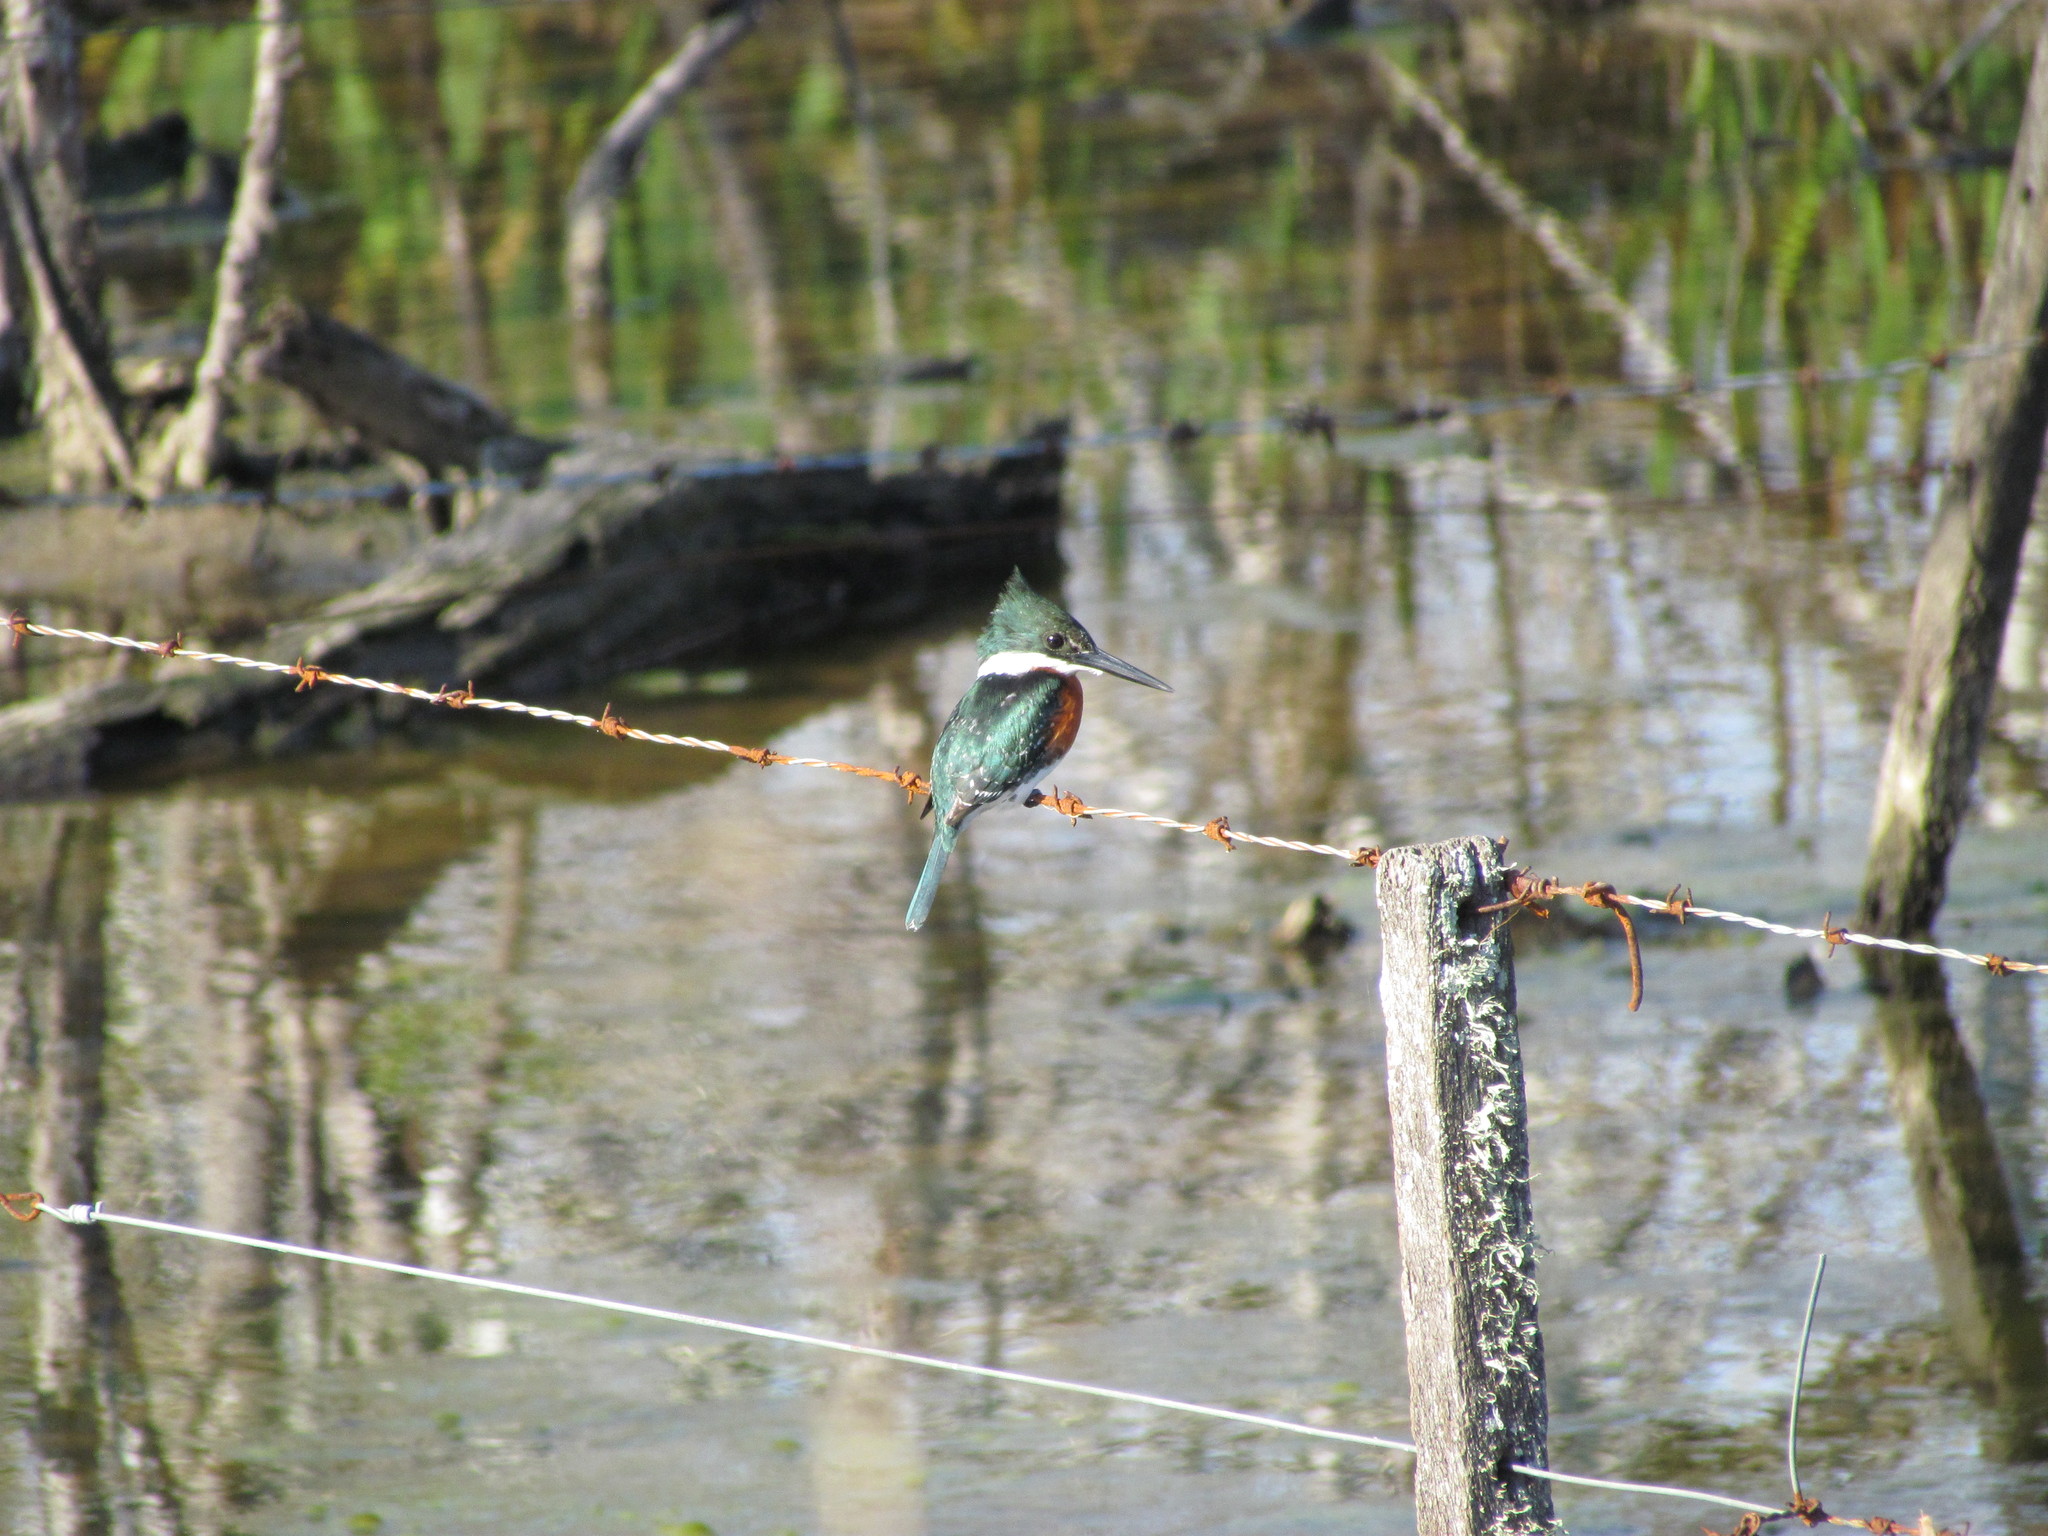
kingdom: Animalia
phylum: Chordata
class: Aves
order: Coraciiformes
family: Alcedinidae
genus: Chloroceryle
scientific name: Chloroceryle americana
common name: Green kingfisher
